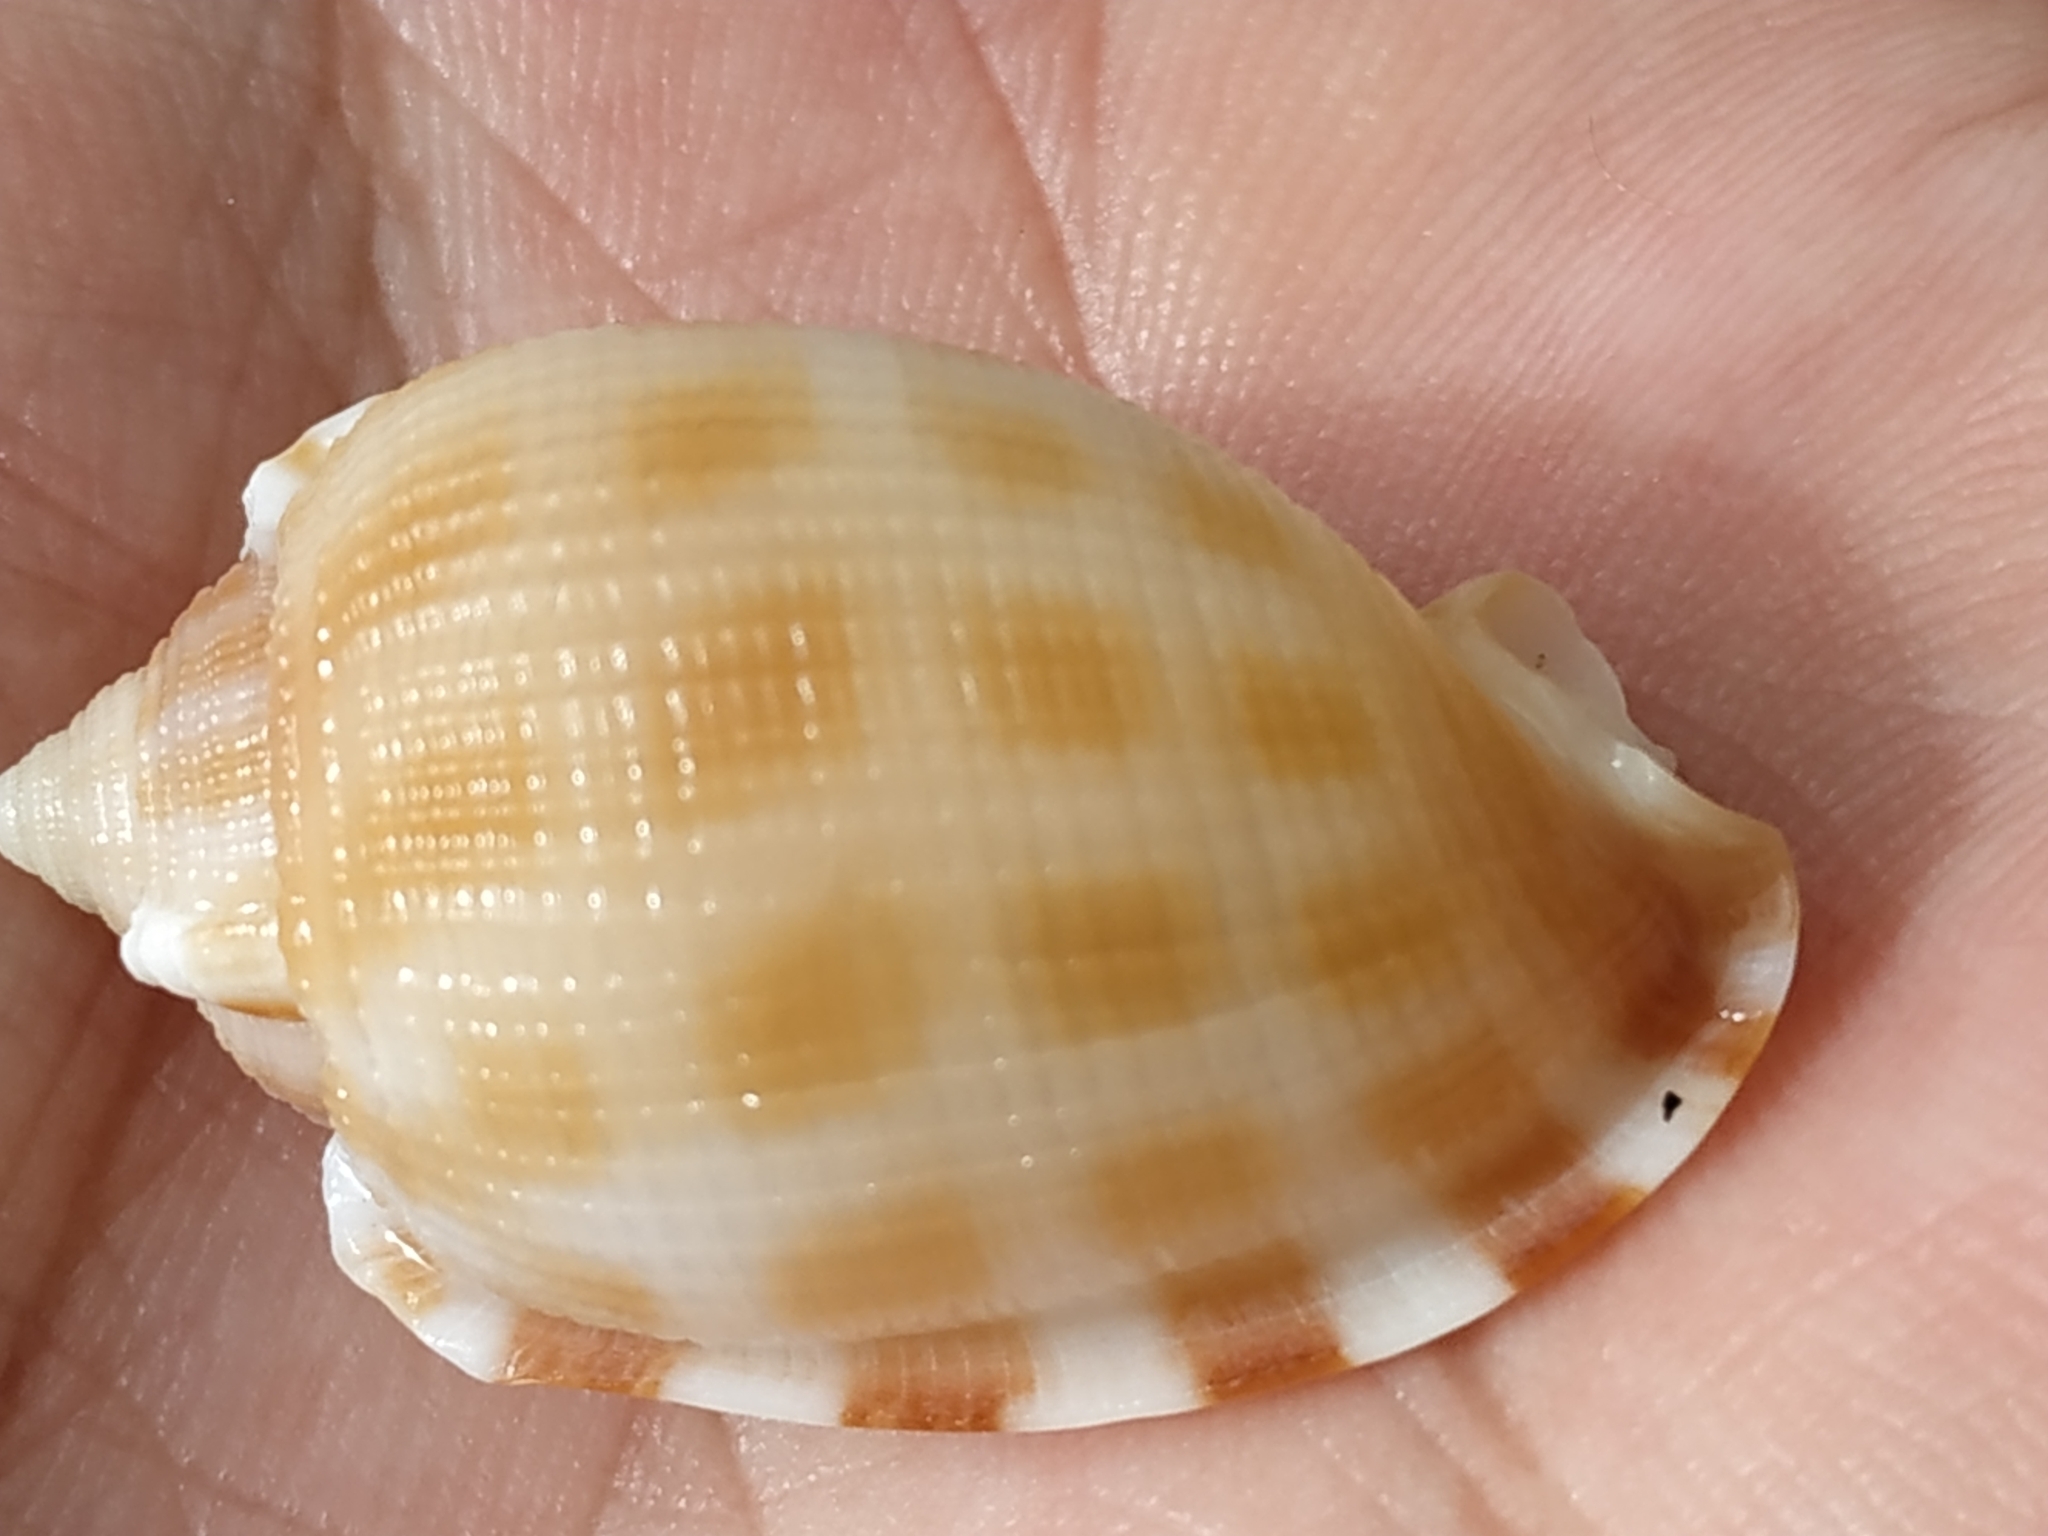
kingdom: Animalia
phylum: Mollusca
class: Gastropoda
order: Littorinimorpha
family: Cassidae
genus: Phalium
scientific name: Phalium decussatum
